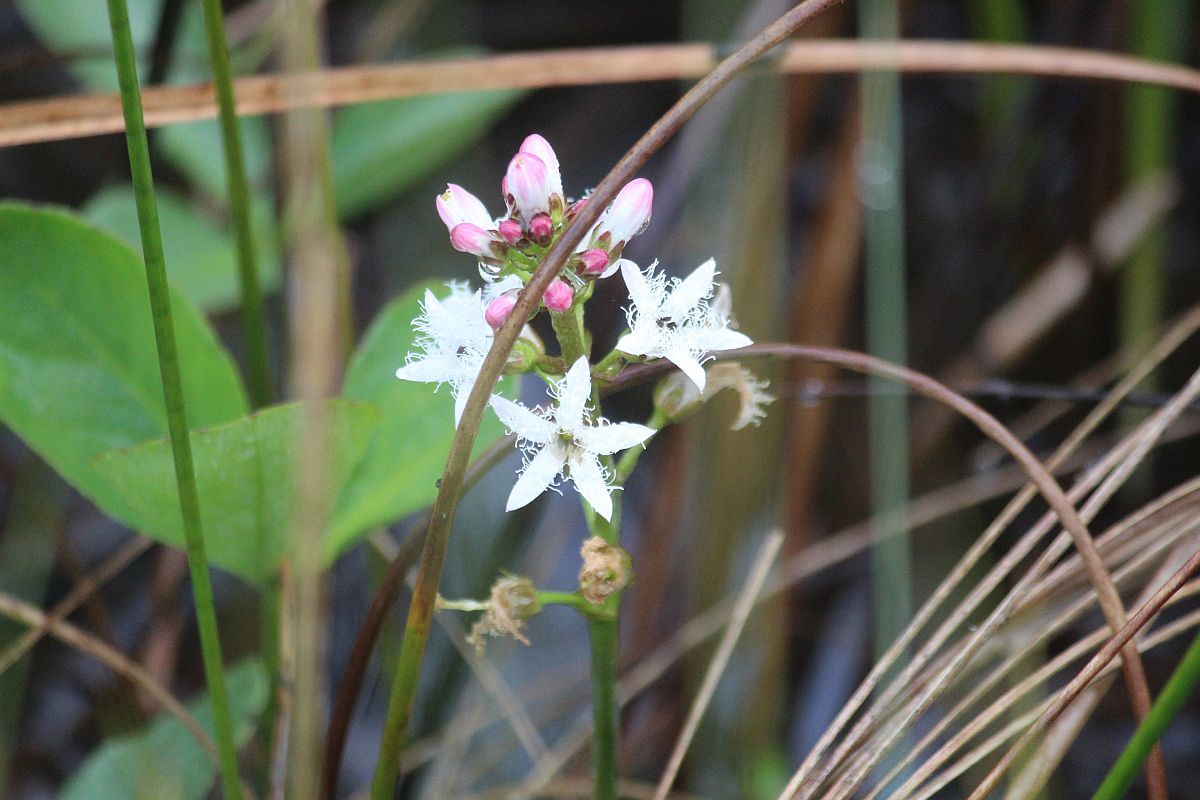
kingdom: Plantae
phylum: Tracheophyta
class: Magnoliopsida
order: Asterales
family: Menyanthaceae
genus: Menyanthes
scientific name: Menyanthes trifoliata
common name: Bogbean
